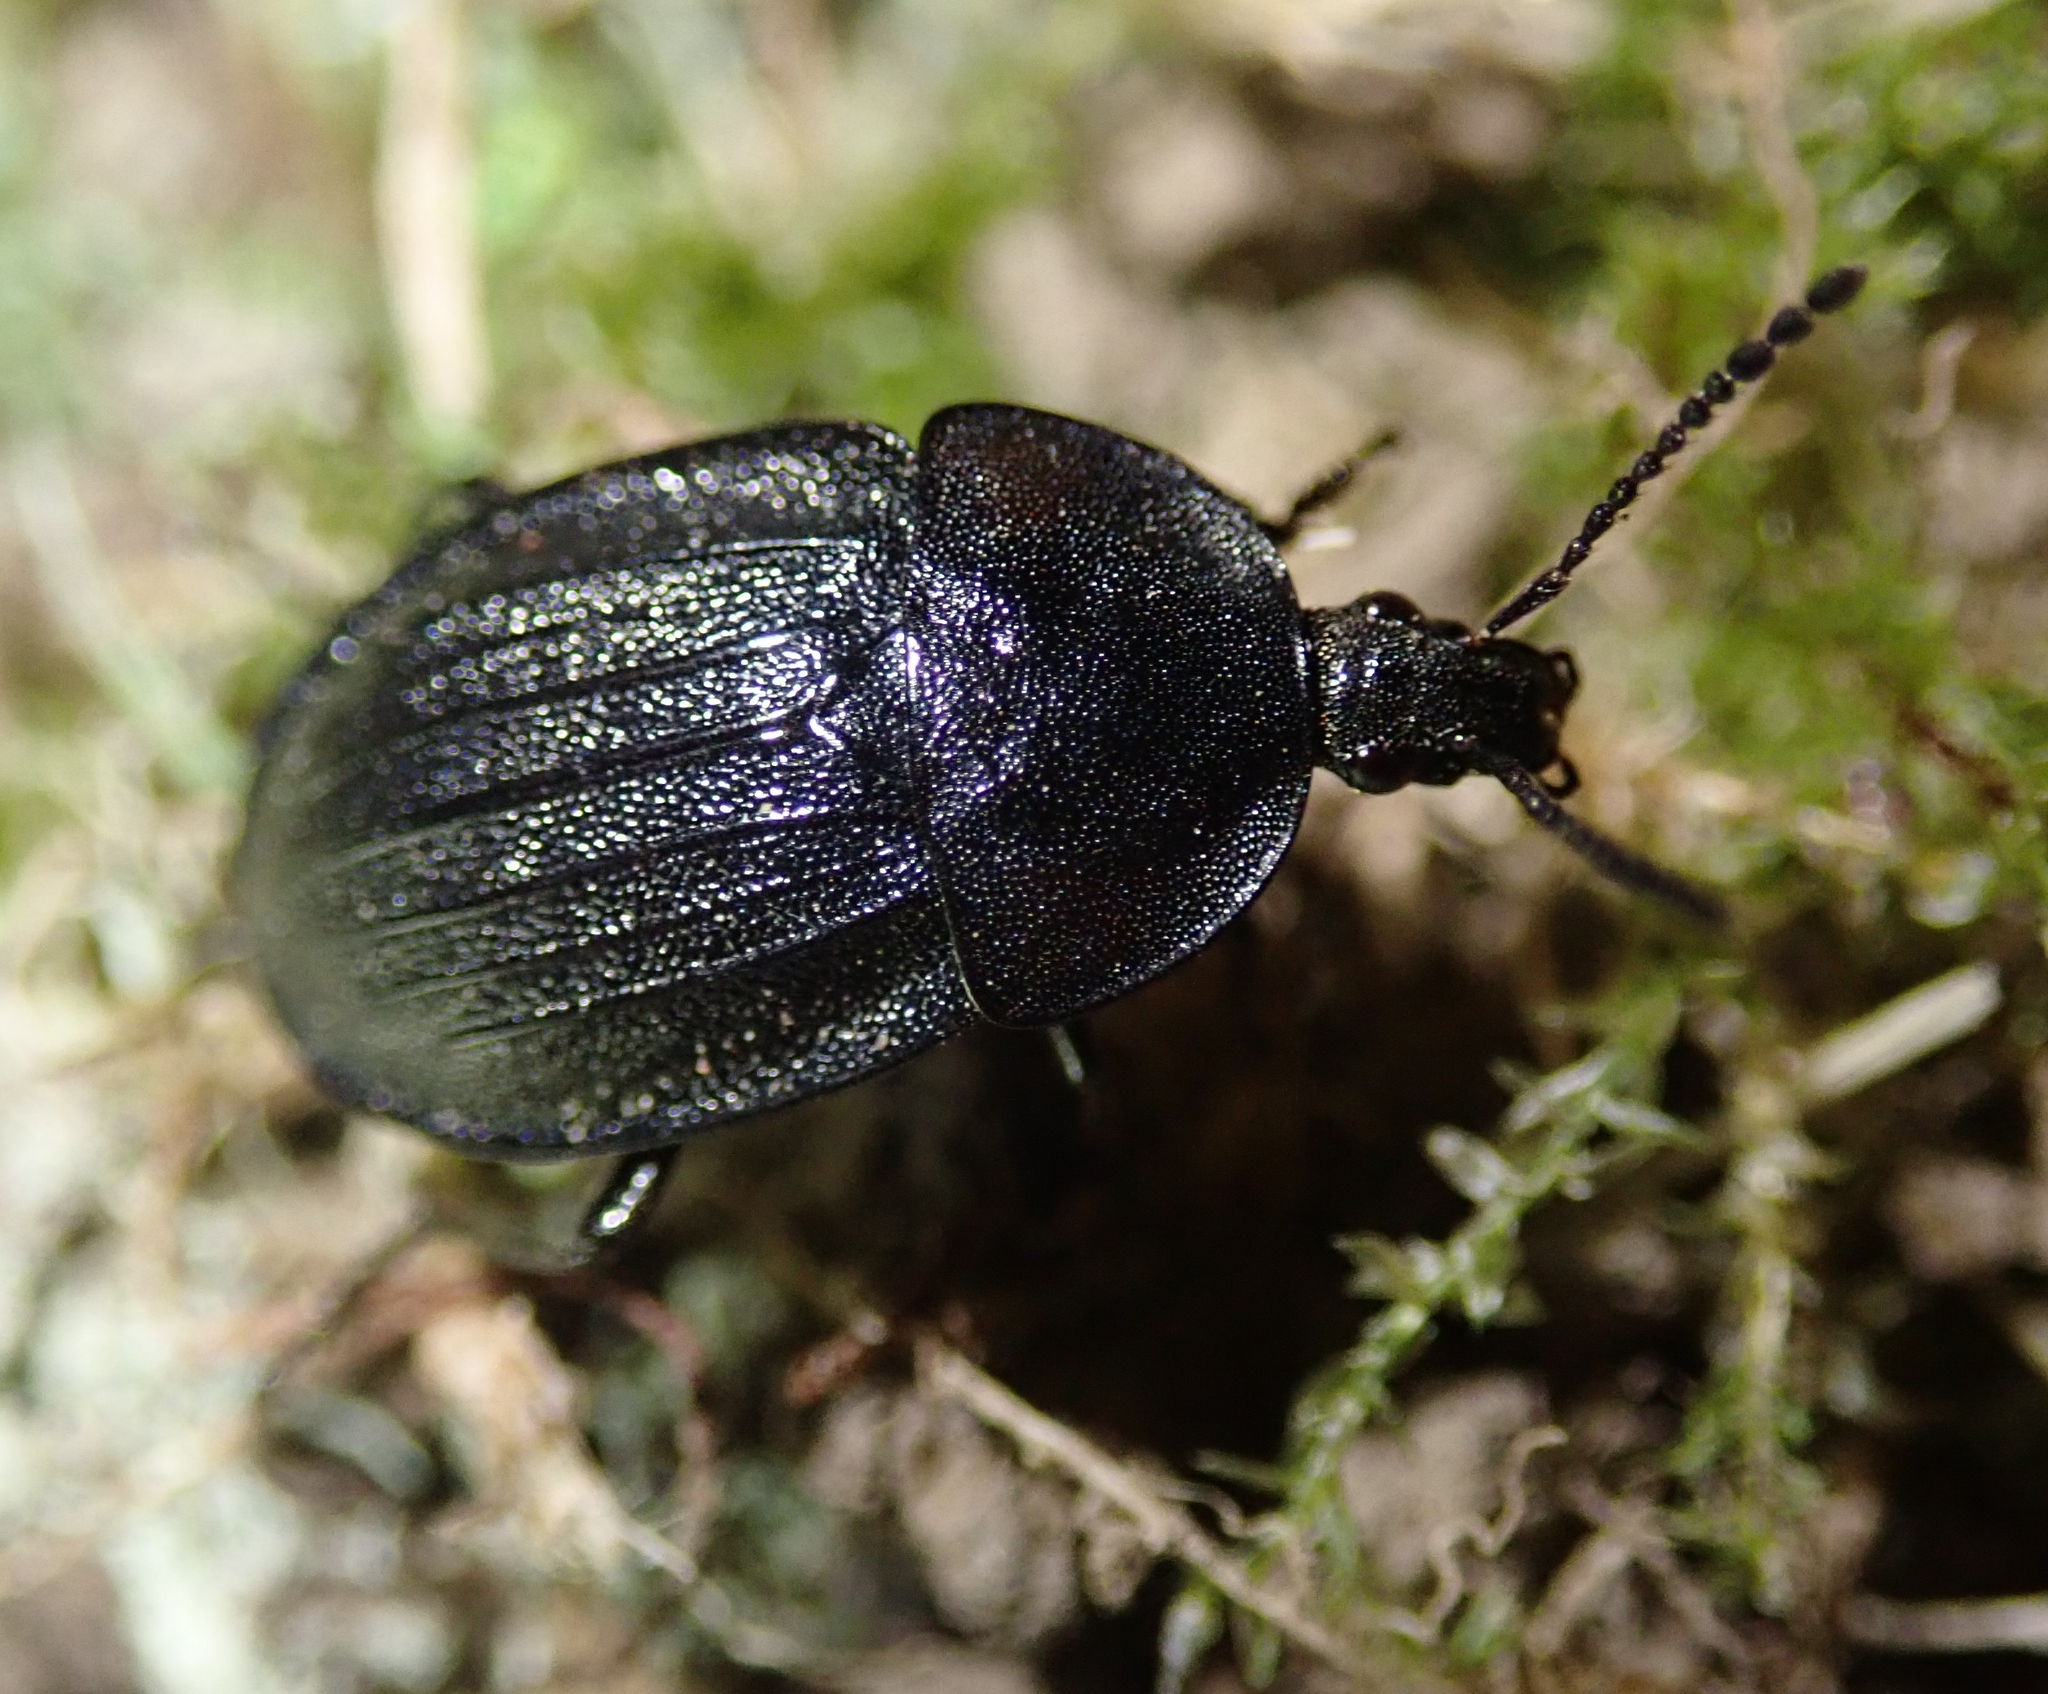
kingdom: Animalia
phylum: Arthropoda
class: Insecta
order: Coleoptera
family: Staphylinidae
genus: Silpha
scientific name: Silpha atrata
